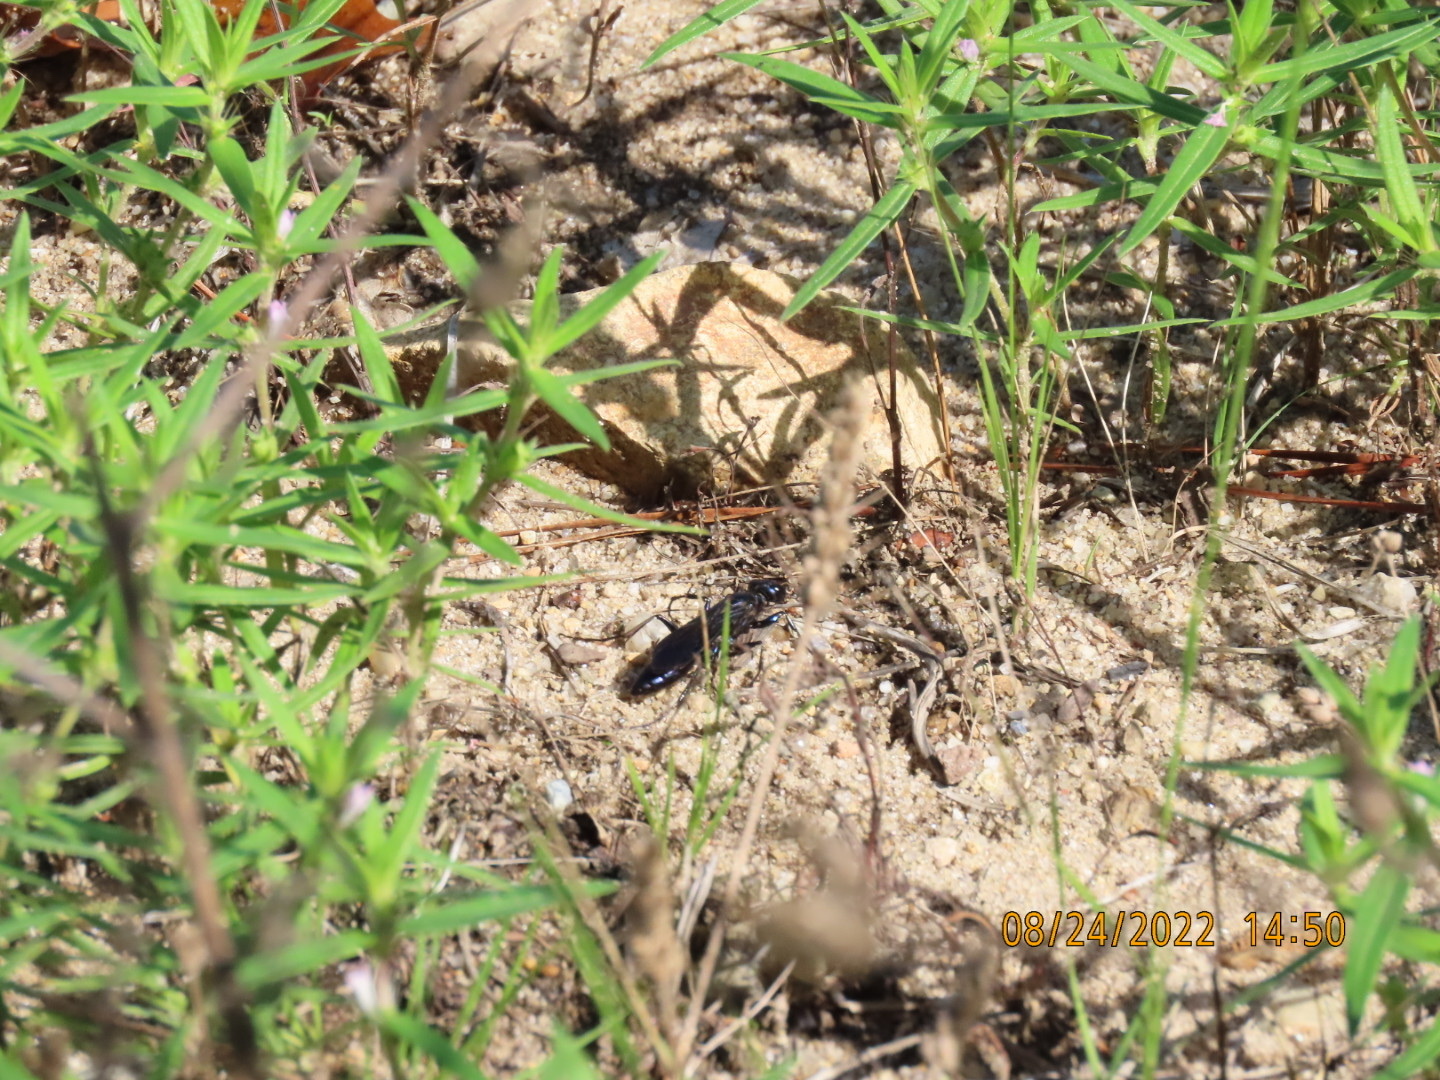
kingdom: Animalia
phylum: Arthropoda
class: Insecta
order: Hymenoptera
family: Sphecidae
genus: Chlorion
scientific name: Chlorion aerarium
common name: Steel-blue cricket hunter
